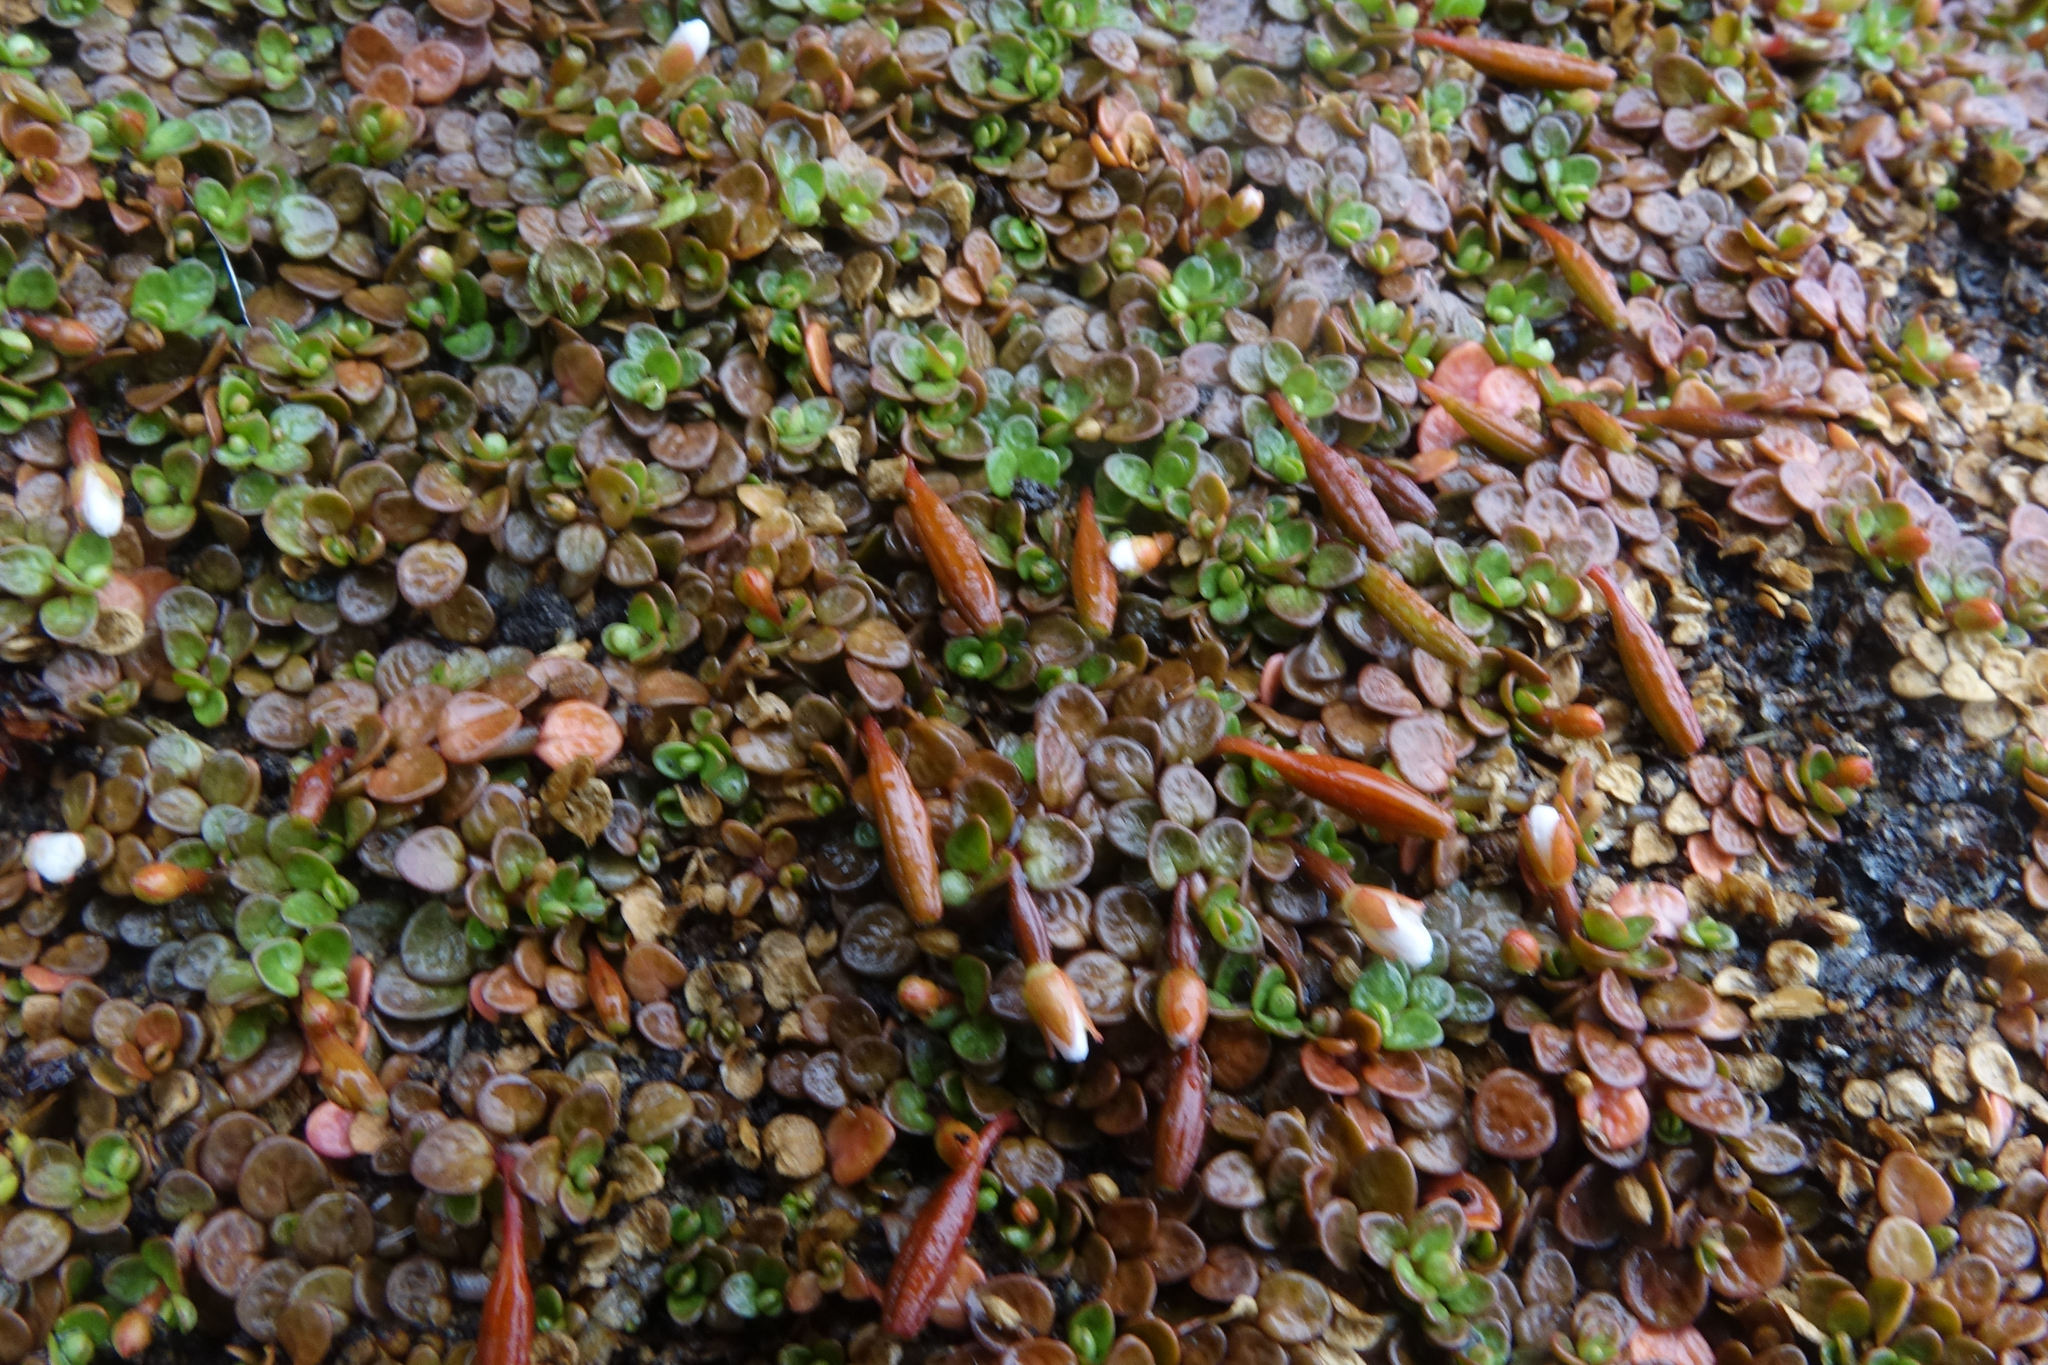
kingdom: Plantae
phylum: Tracheophyta
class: Magnoliopsida
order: Myrtales
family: Onagraceae
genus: Epilobium
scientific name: Epilobium komarovianum
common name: Bronzy willowherb
